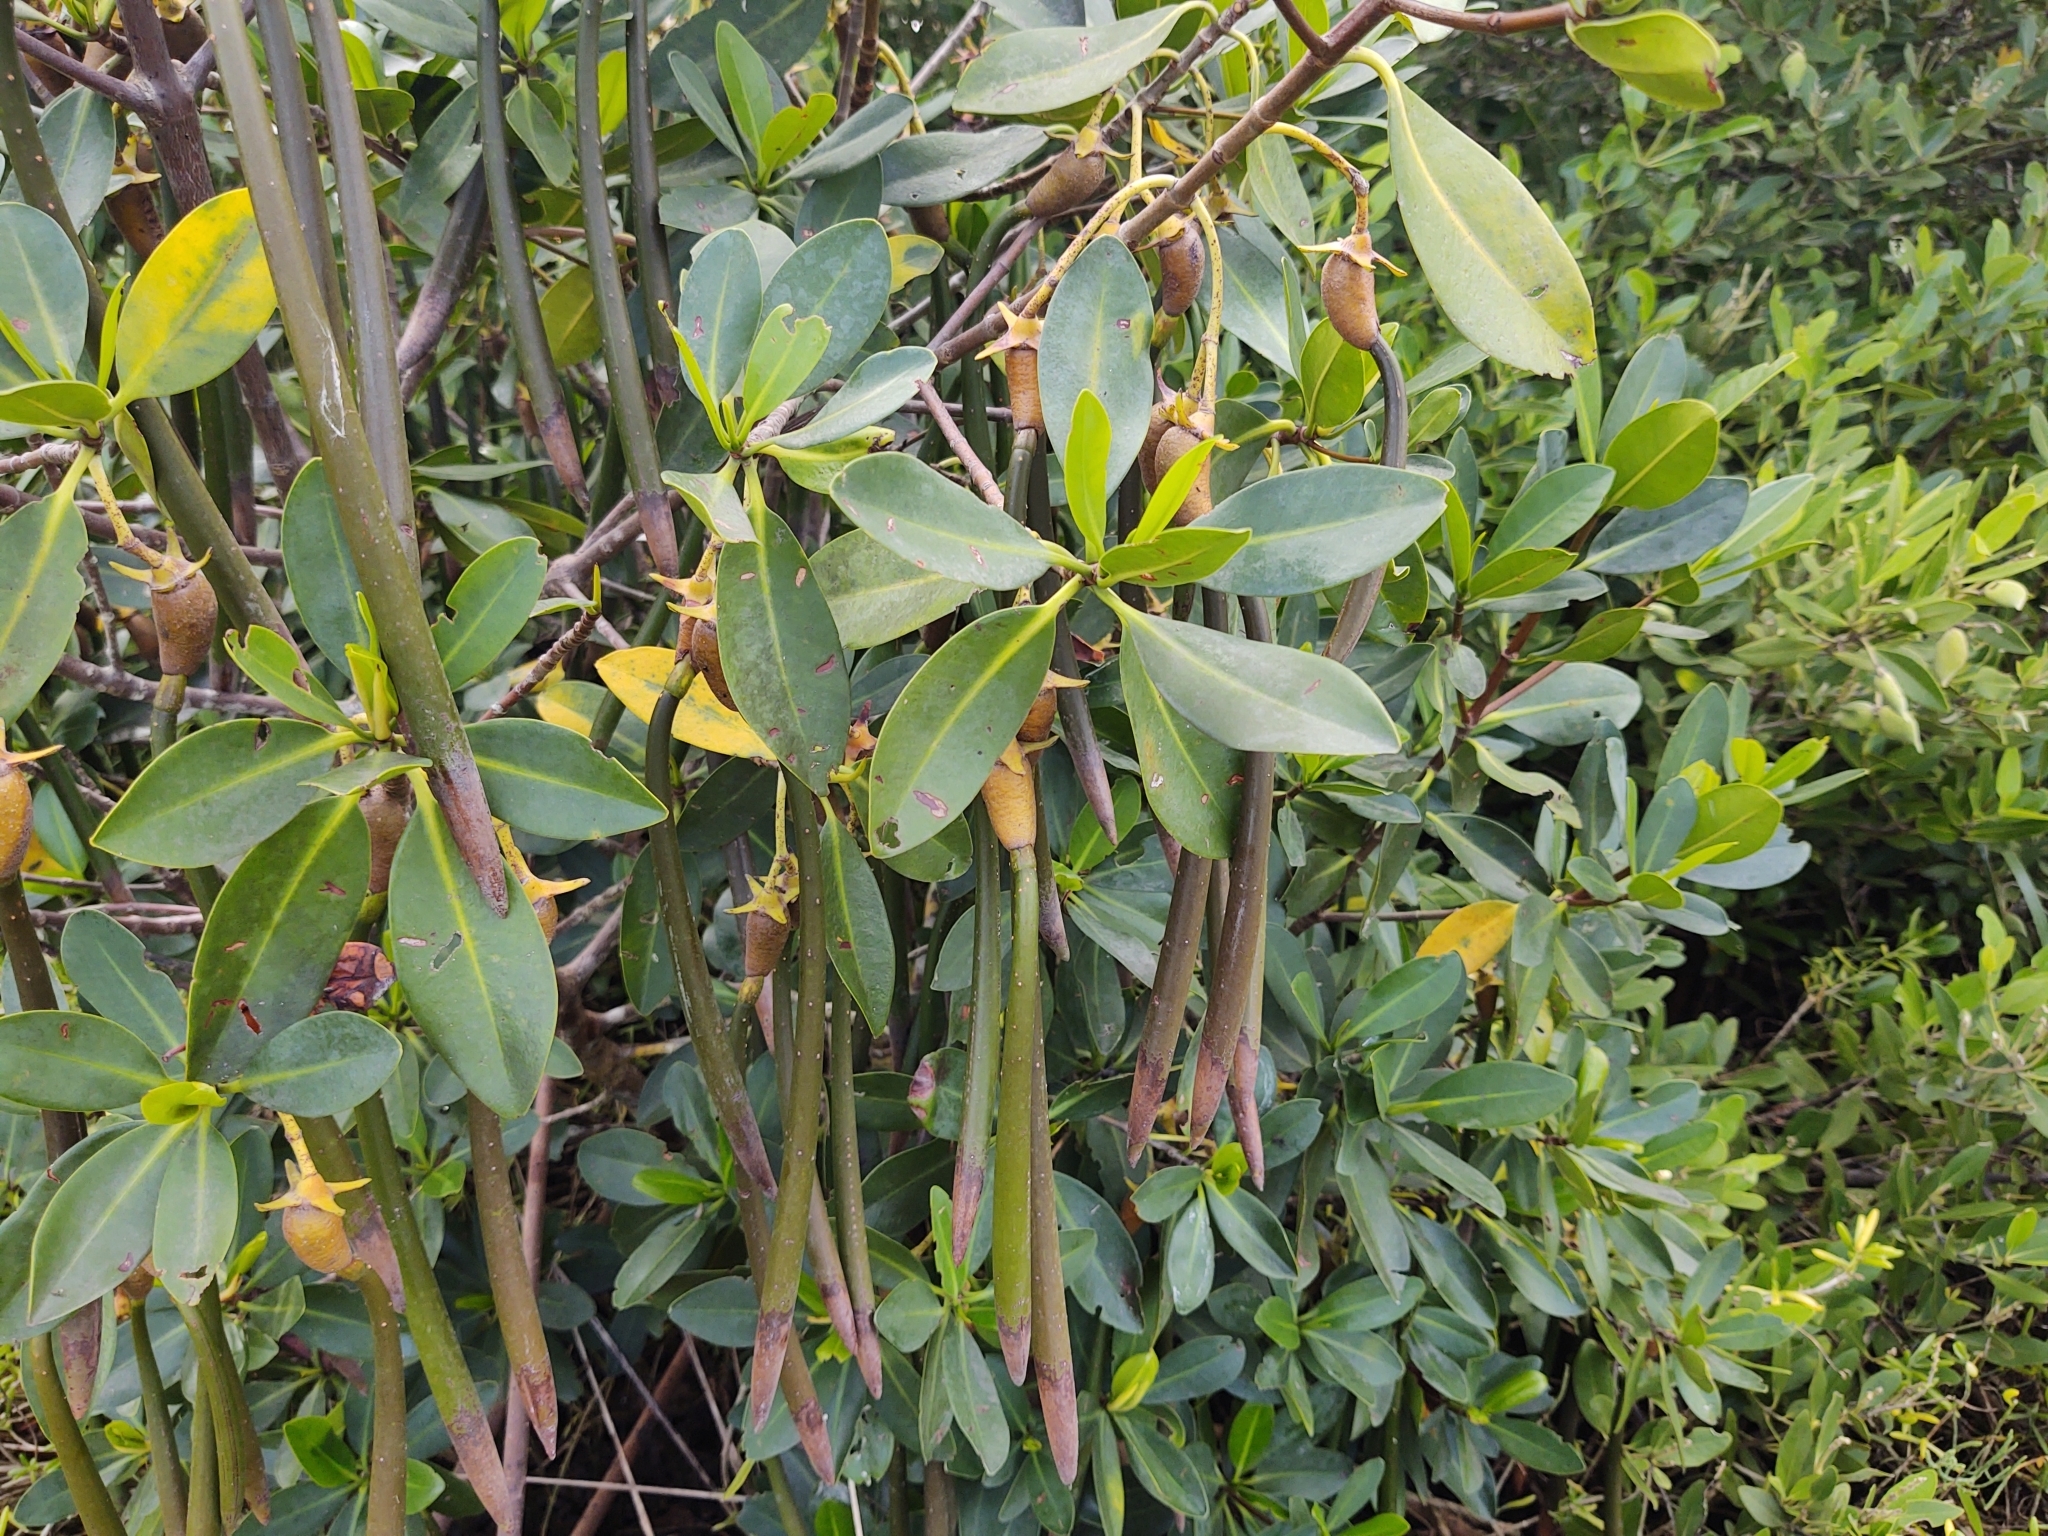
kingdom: Plantae
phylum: Tracheophyta
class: Magnoliopsida
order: Malpighiales
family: Rhizophoraceae
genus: Rhizophora
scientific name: Rhizophora mangle
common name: Red mangrove
